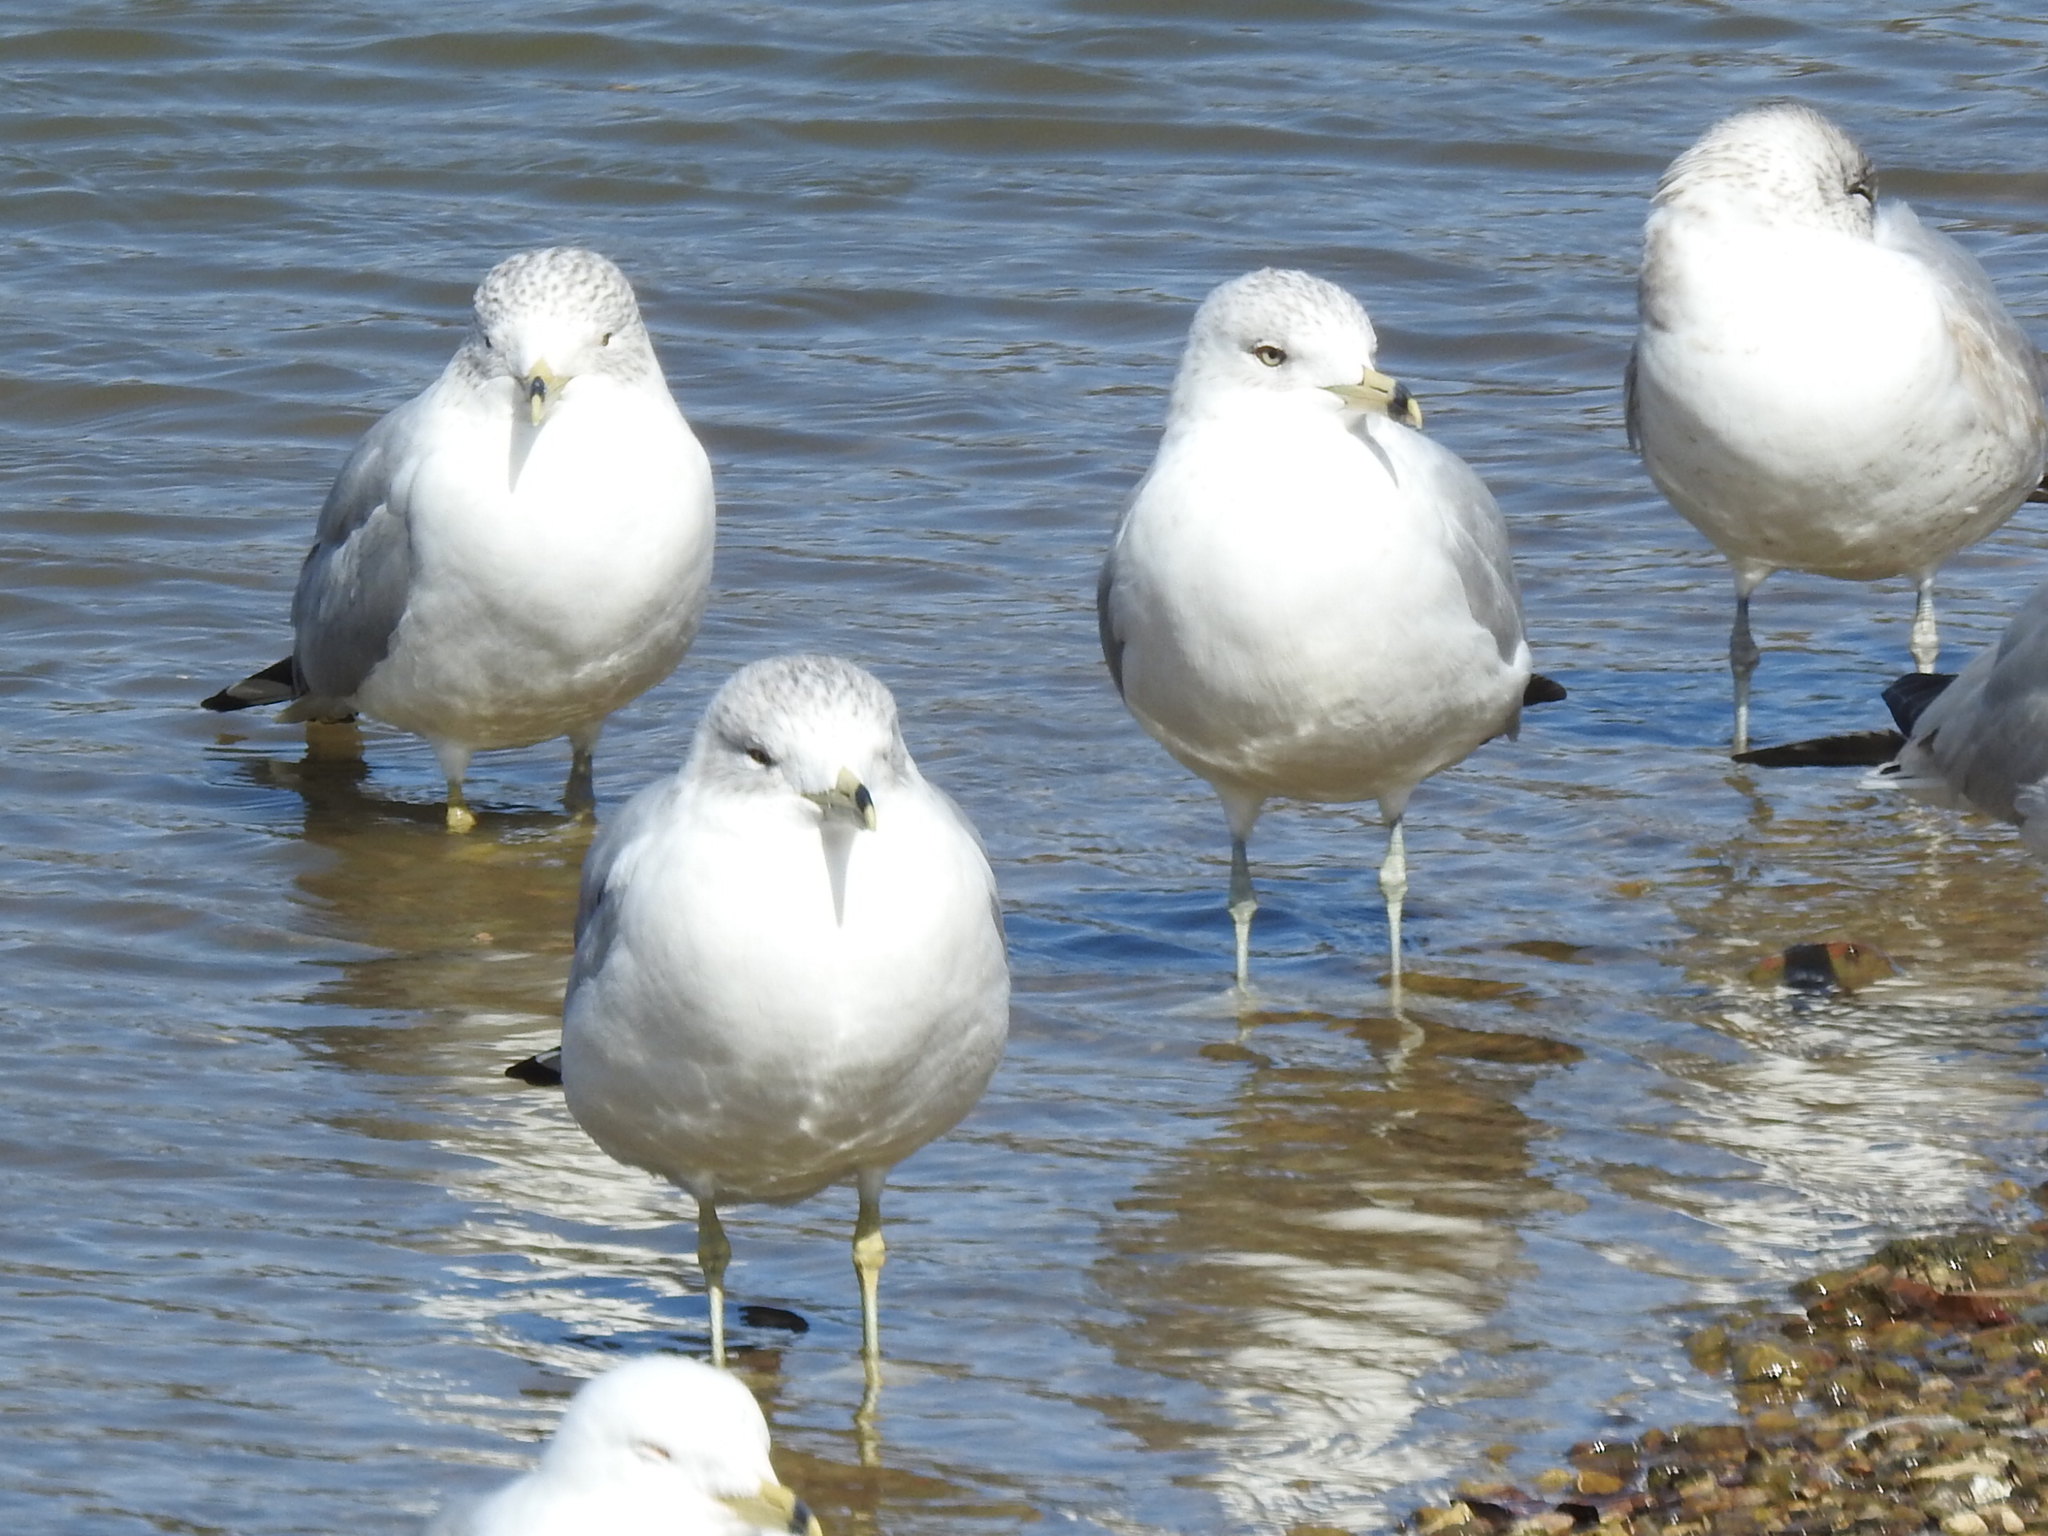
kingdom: Animalia
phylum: Chordata
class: Aves
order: Charadriiformes
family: Laridae
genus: Larus
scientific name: Larus delawarensis
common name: Ring-billed gull
